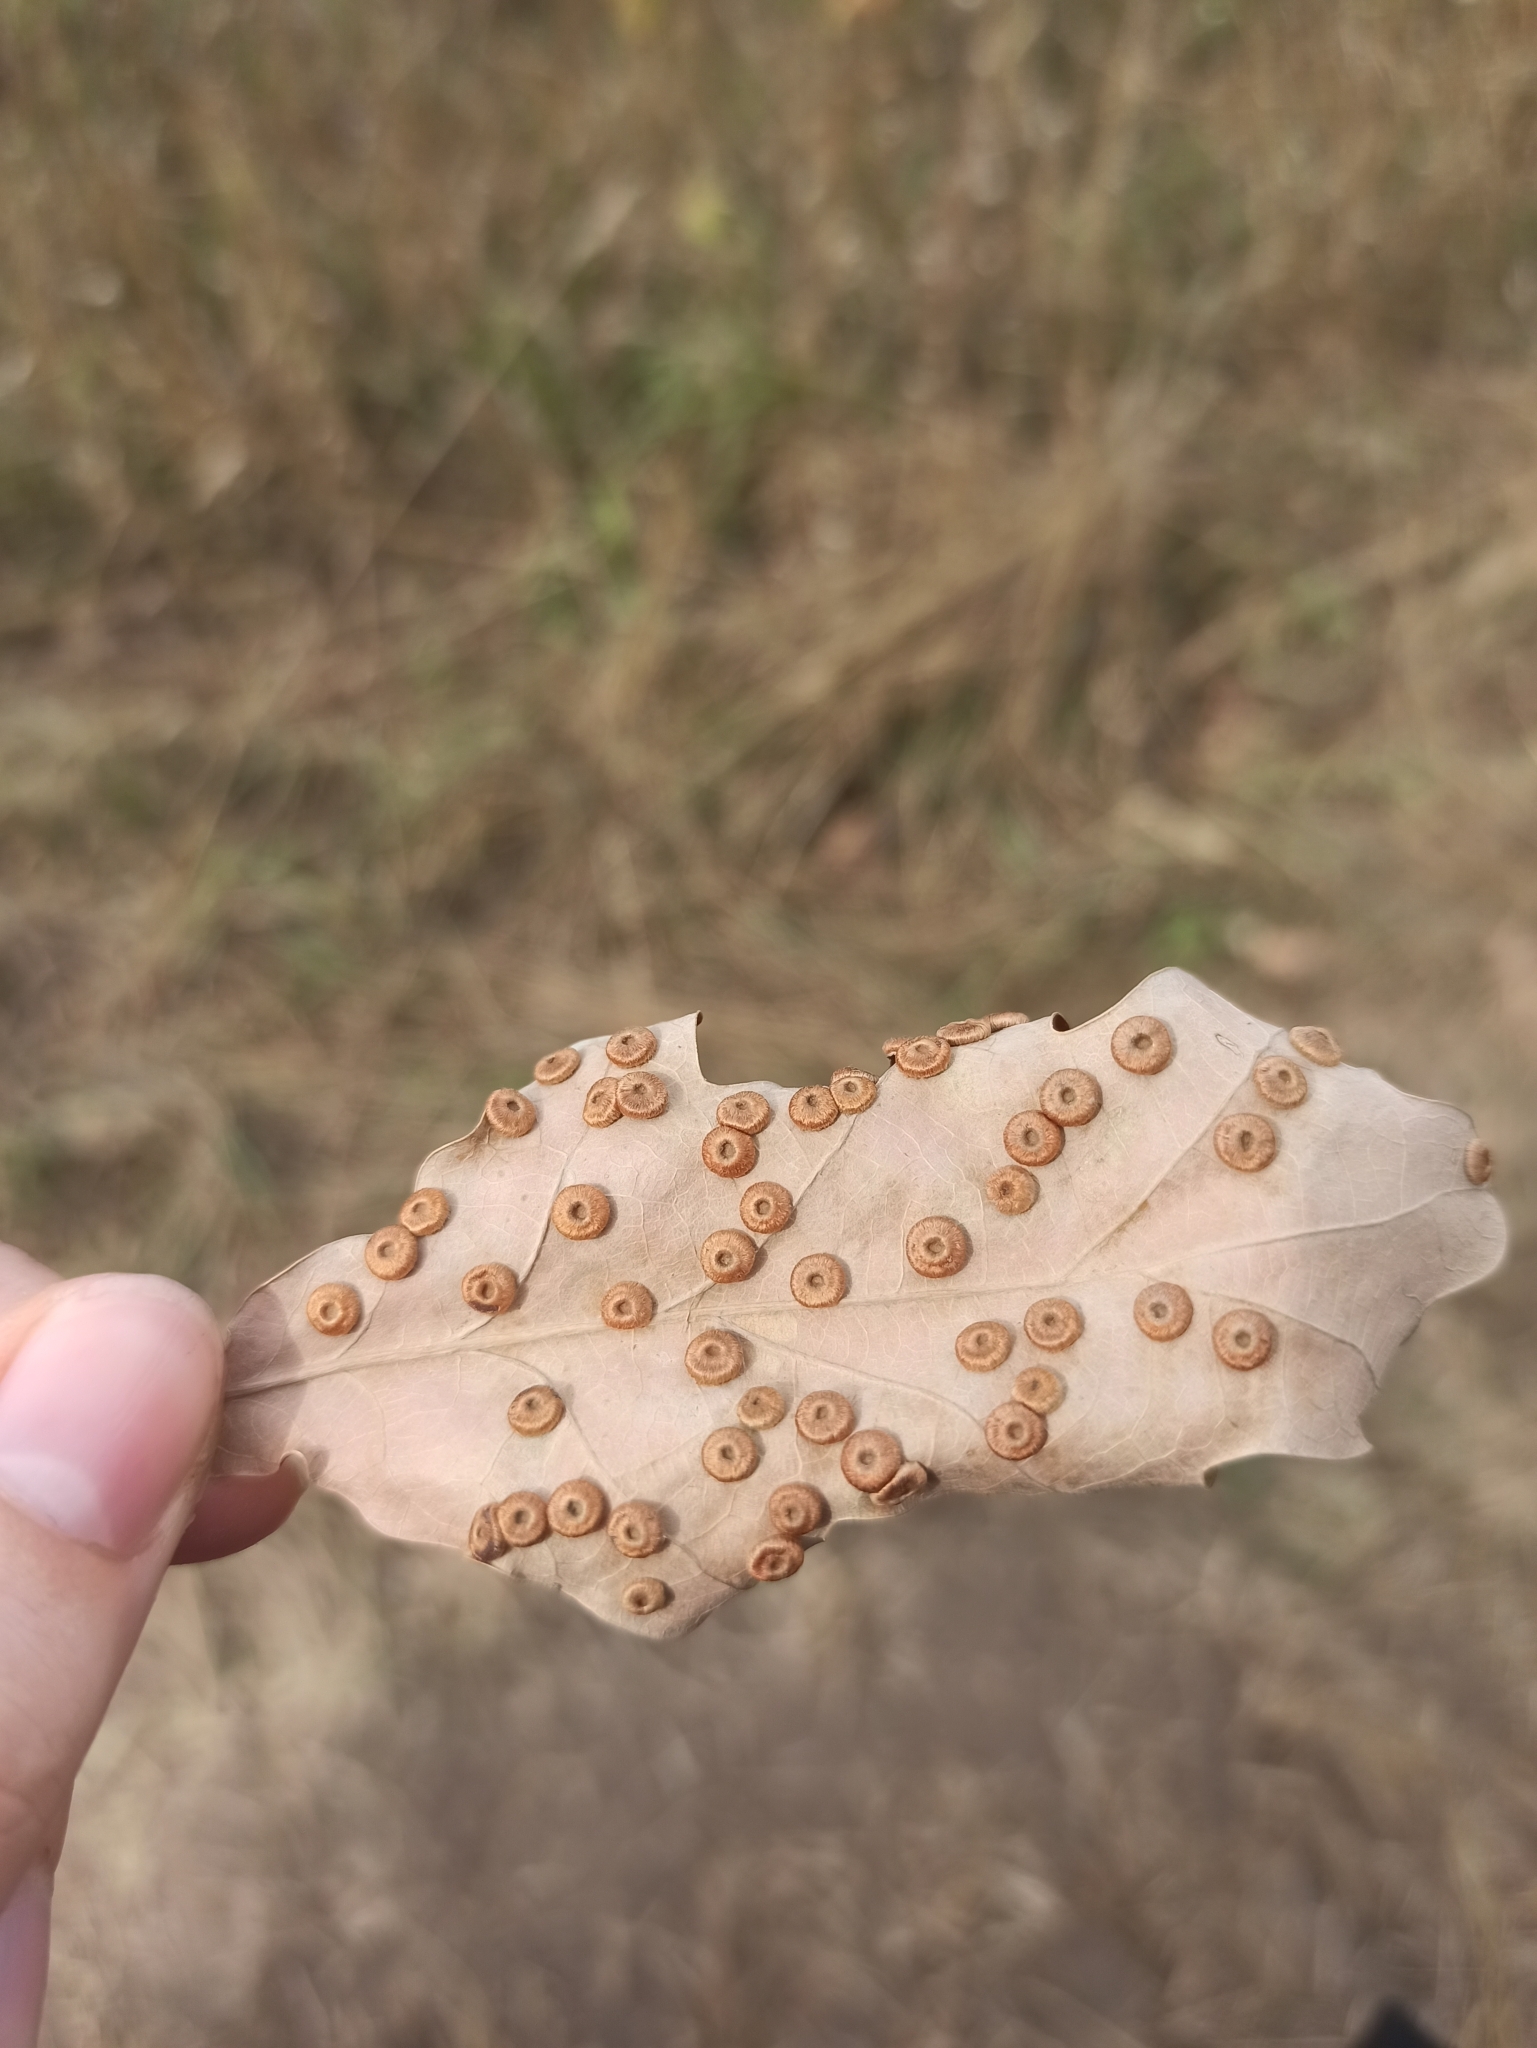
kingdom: Animalia
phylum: Arthropoda
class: Insecta
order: Hymenoptera
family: Cynipidae
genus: Neuroterus
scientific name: Neuroterus numismalis
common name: Silk-button spangle gall
